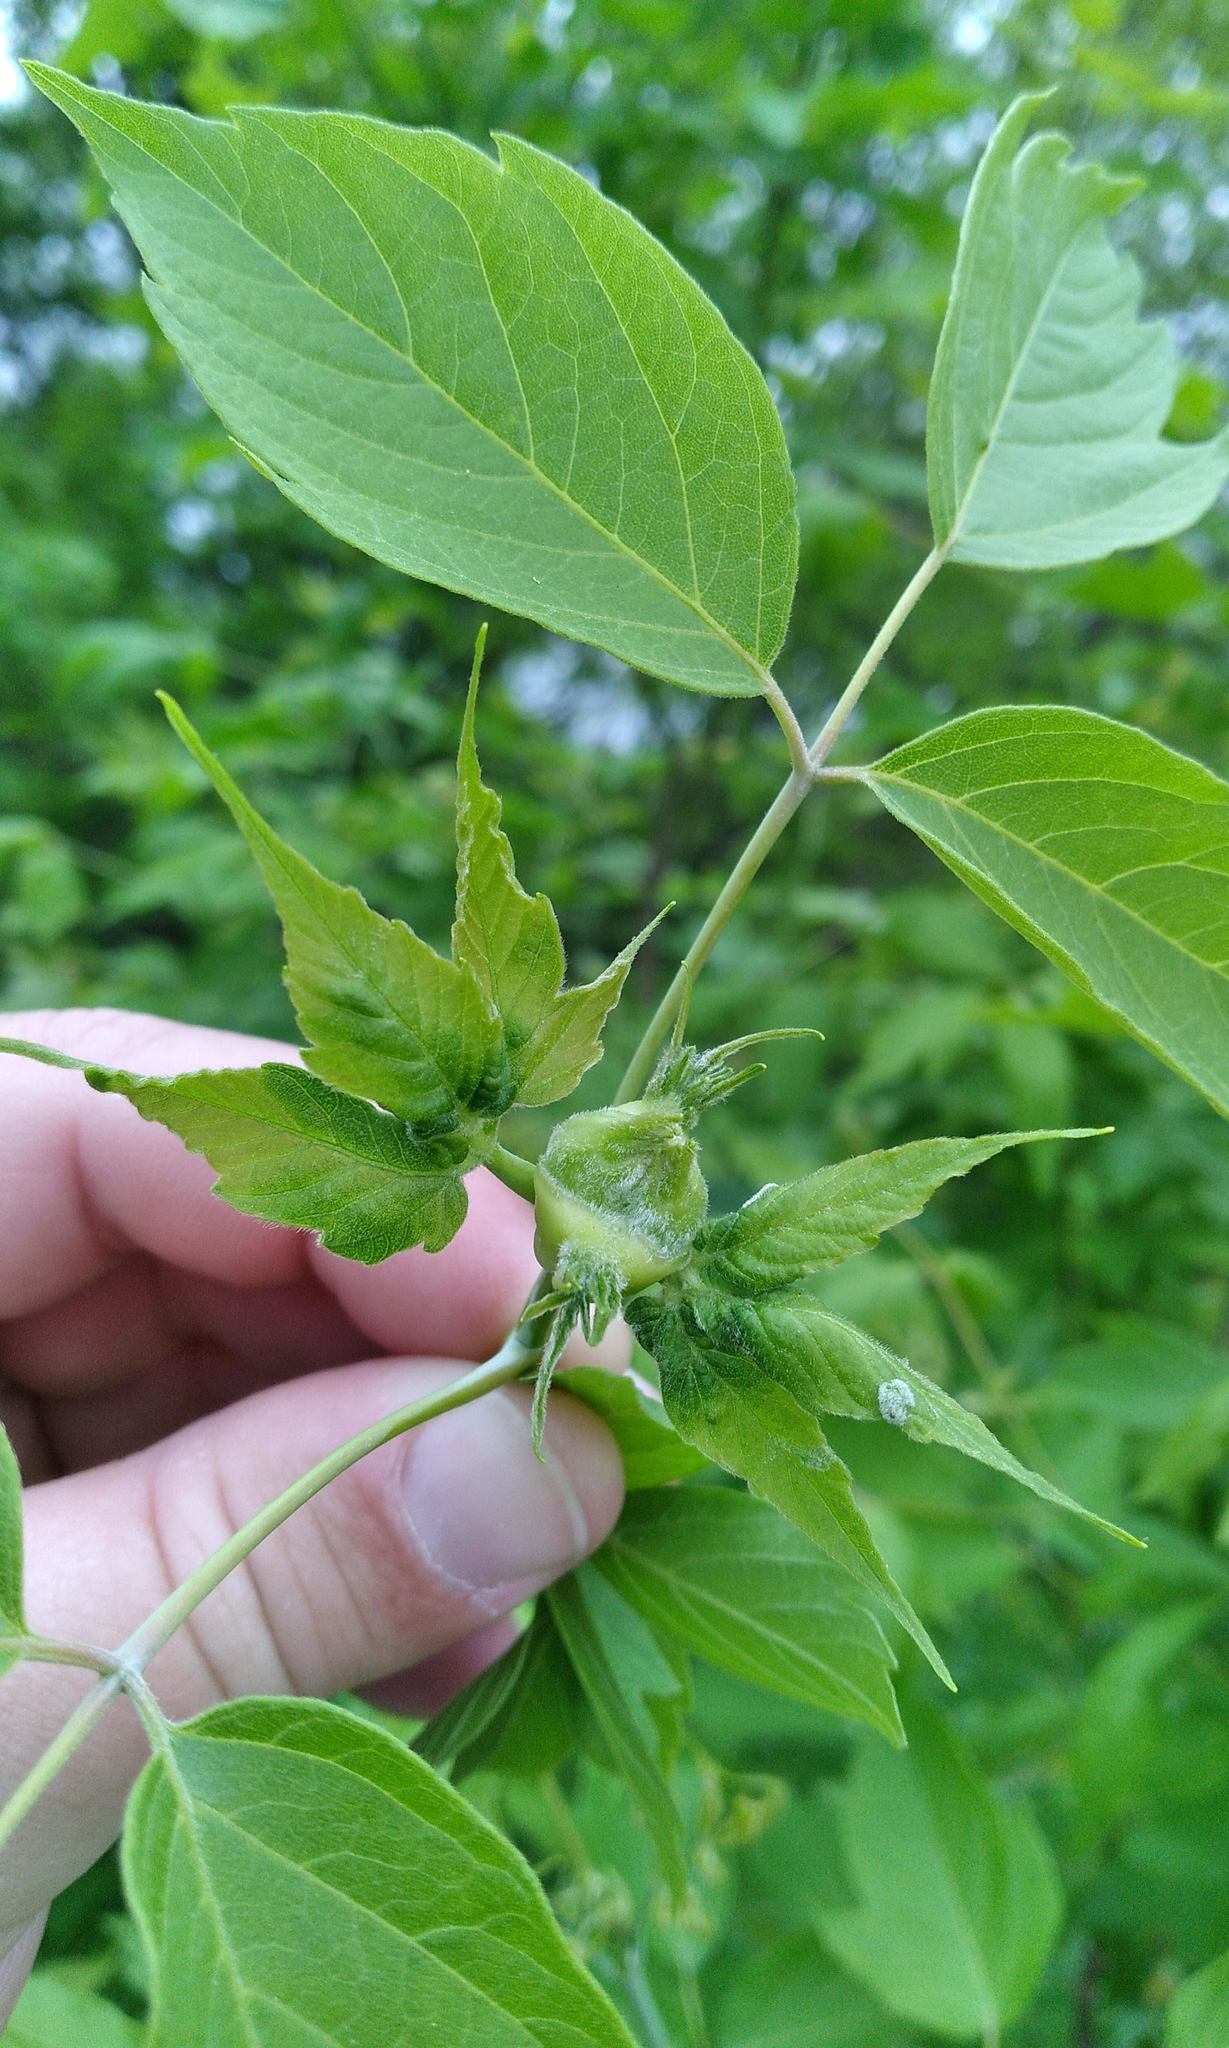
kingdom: Animalia
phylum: Arthropoda
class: Insecta
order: Diptera
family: Cecidomyiidae
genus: Contarinia
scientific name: Contarinia negundinis
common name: Boxelder budgall midge
